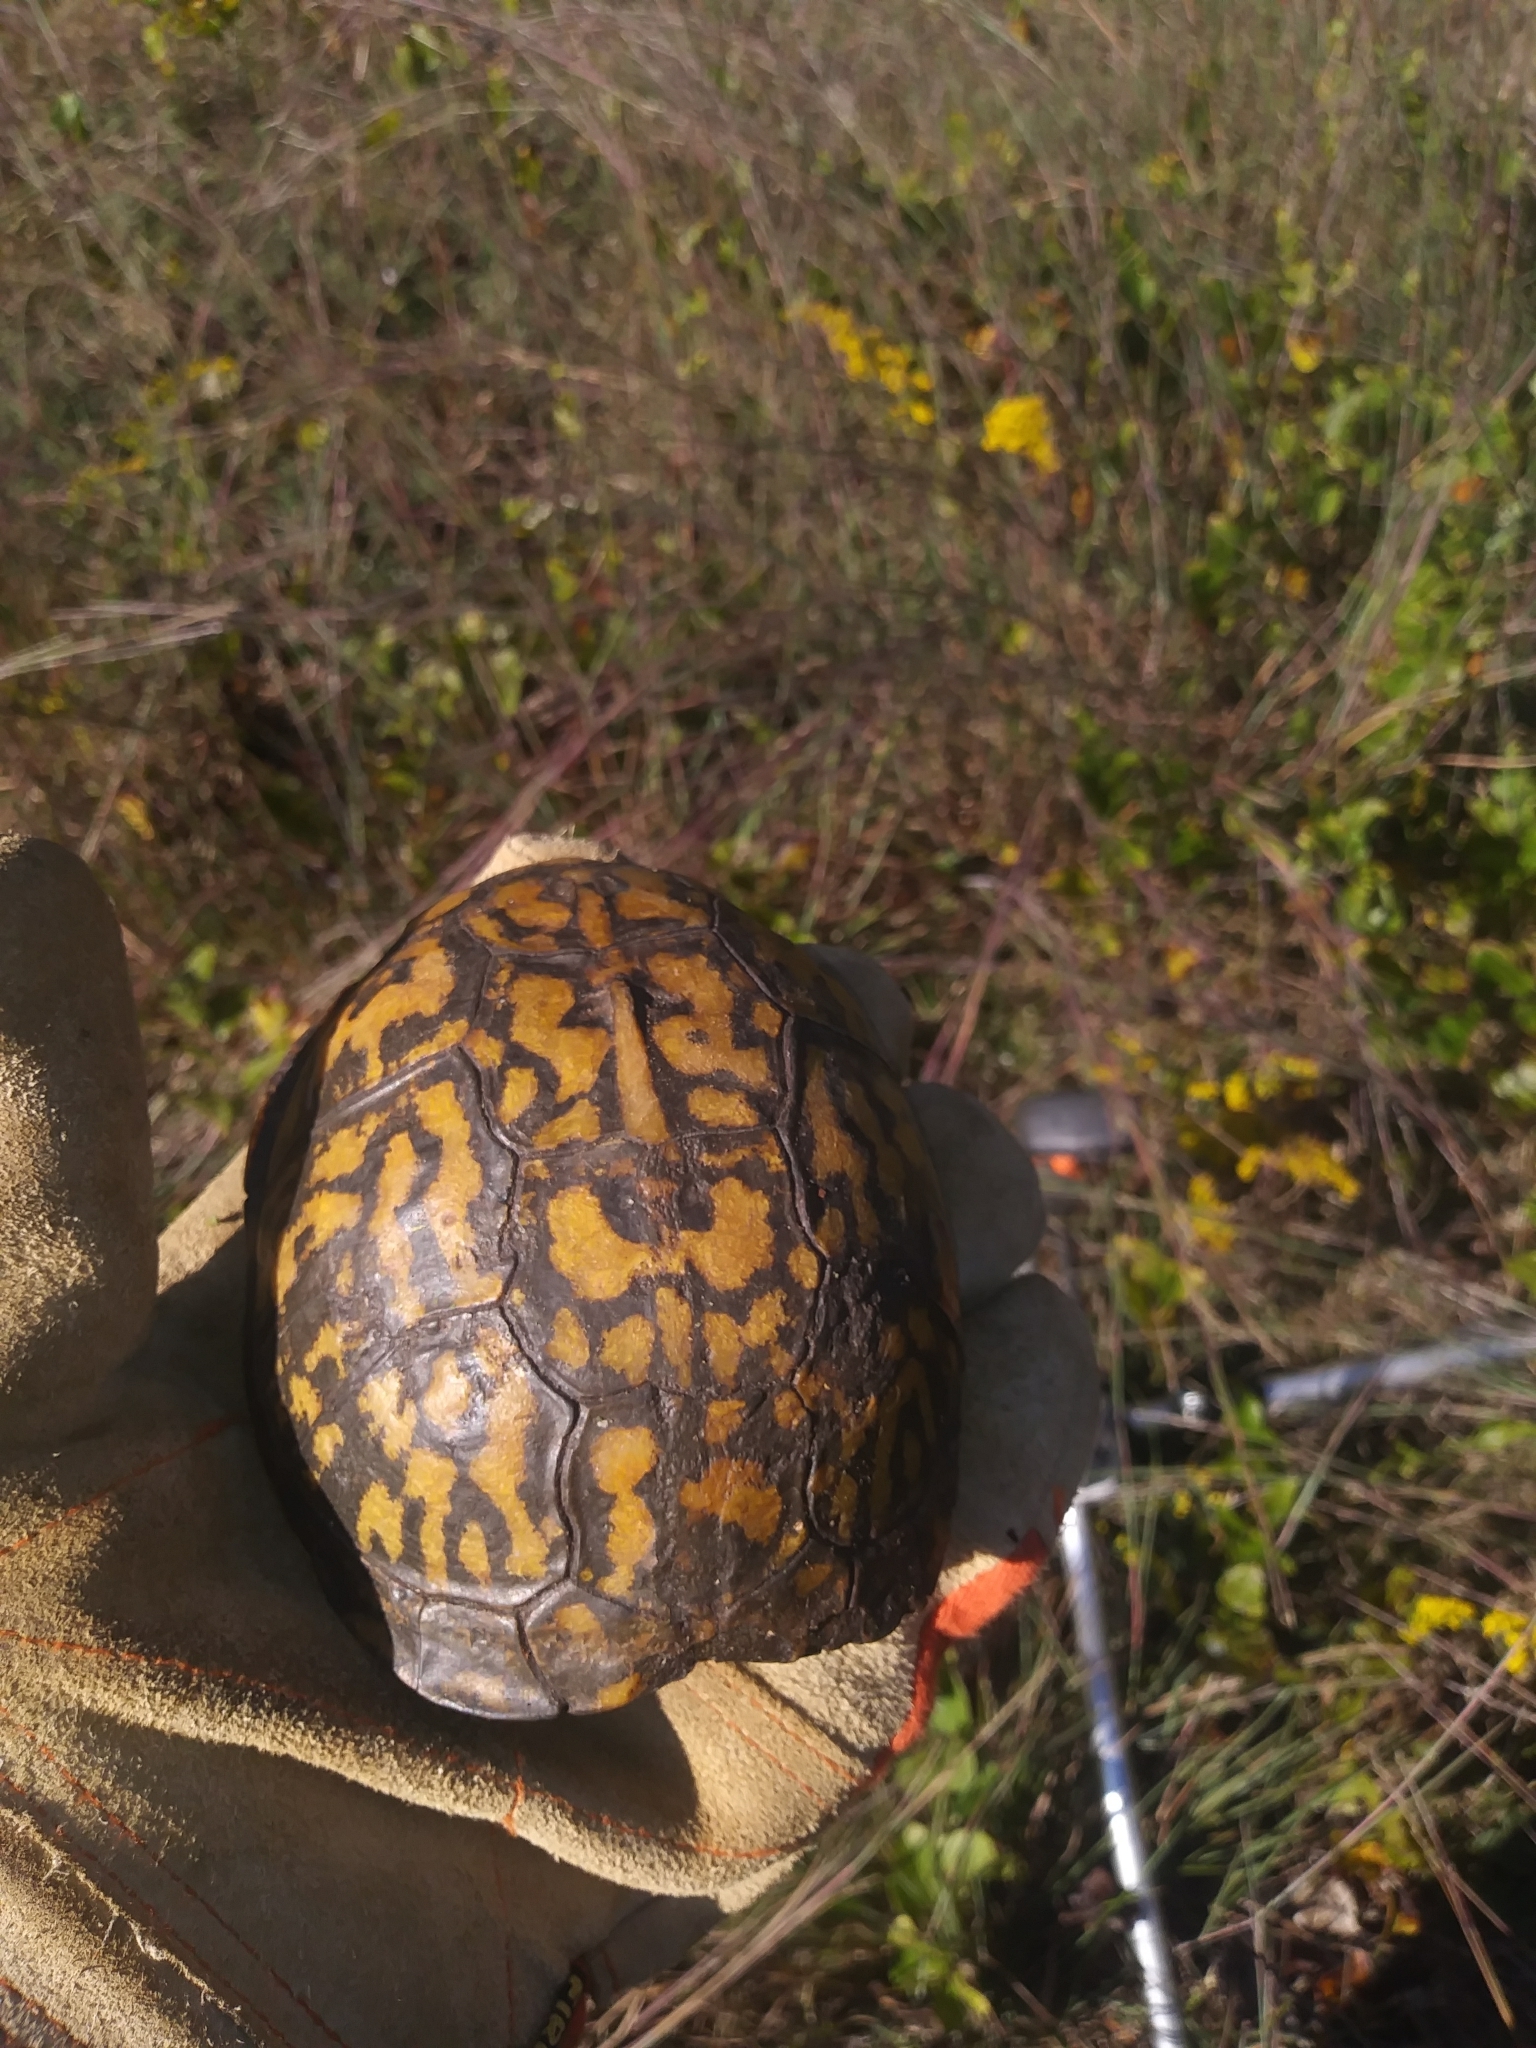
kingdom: Animalia
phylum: Chordata
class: Testudines
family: Emydidae
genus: Terrapene
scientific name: Terrapene carolina
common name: Common box turtle
